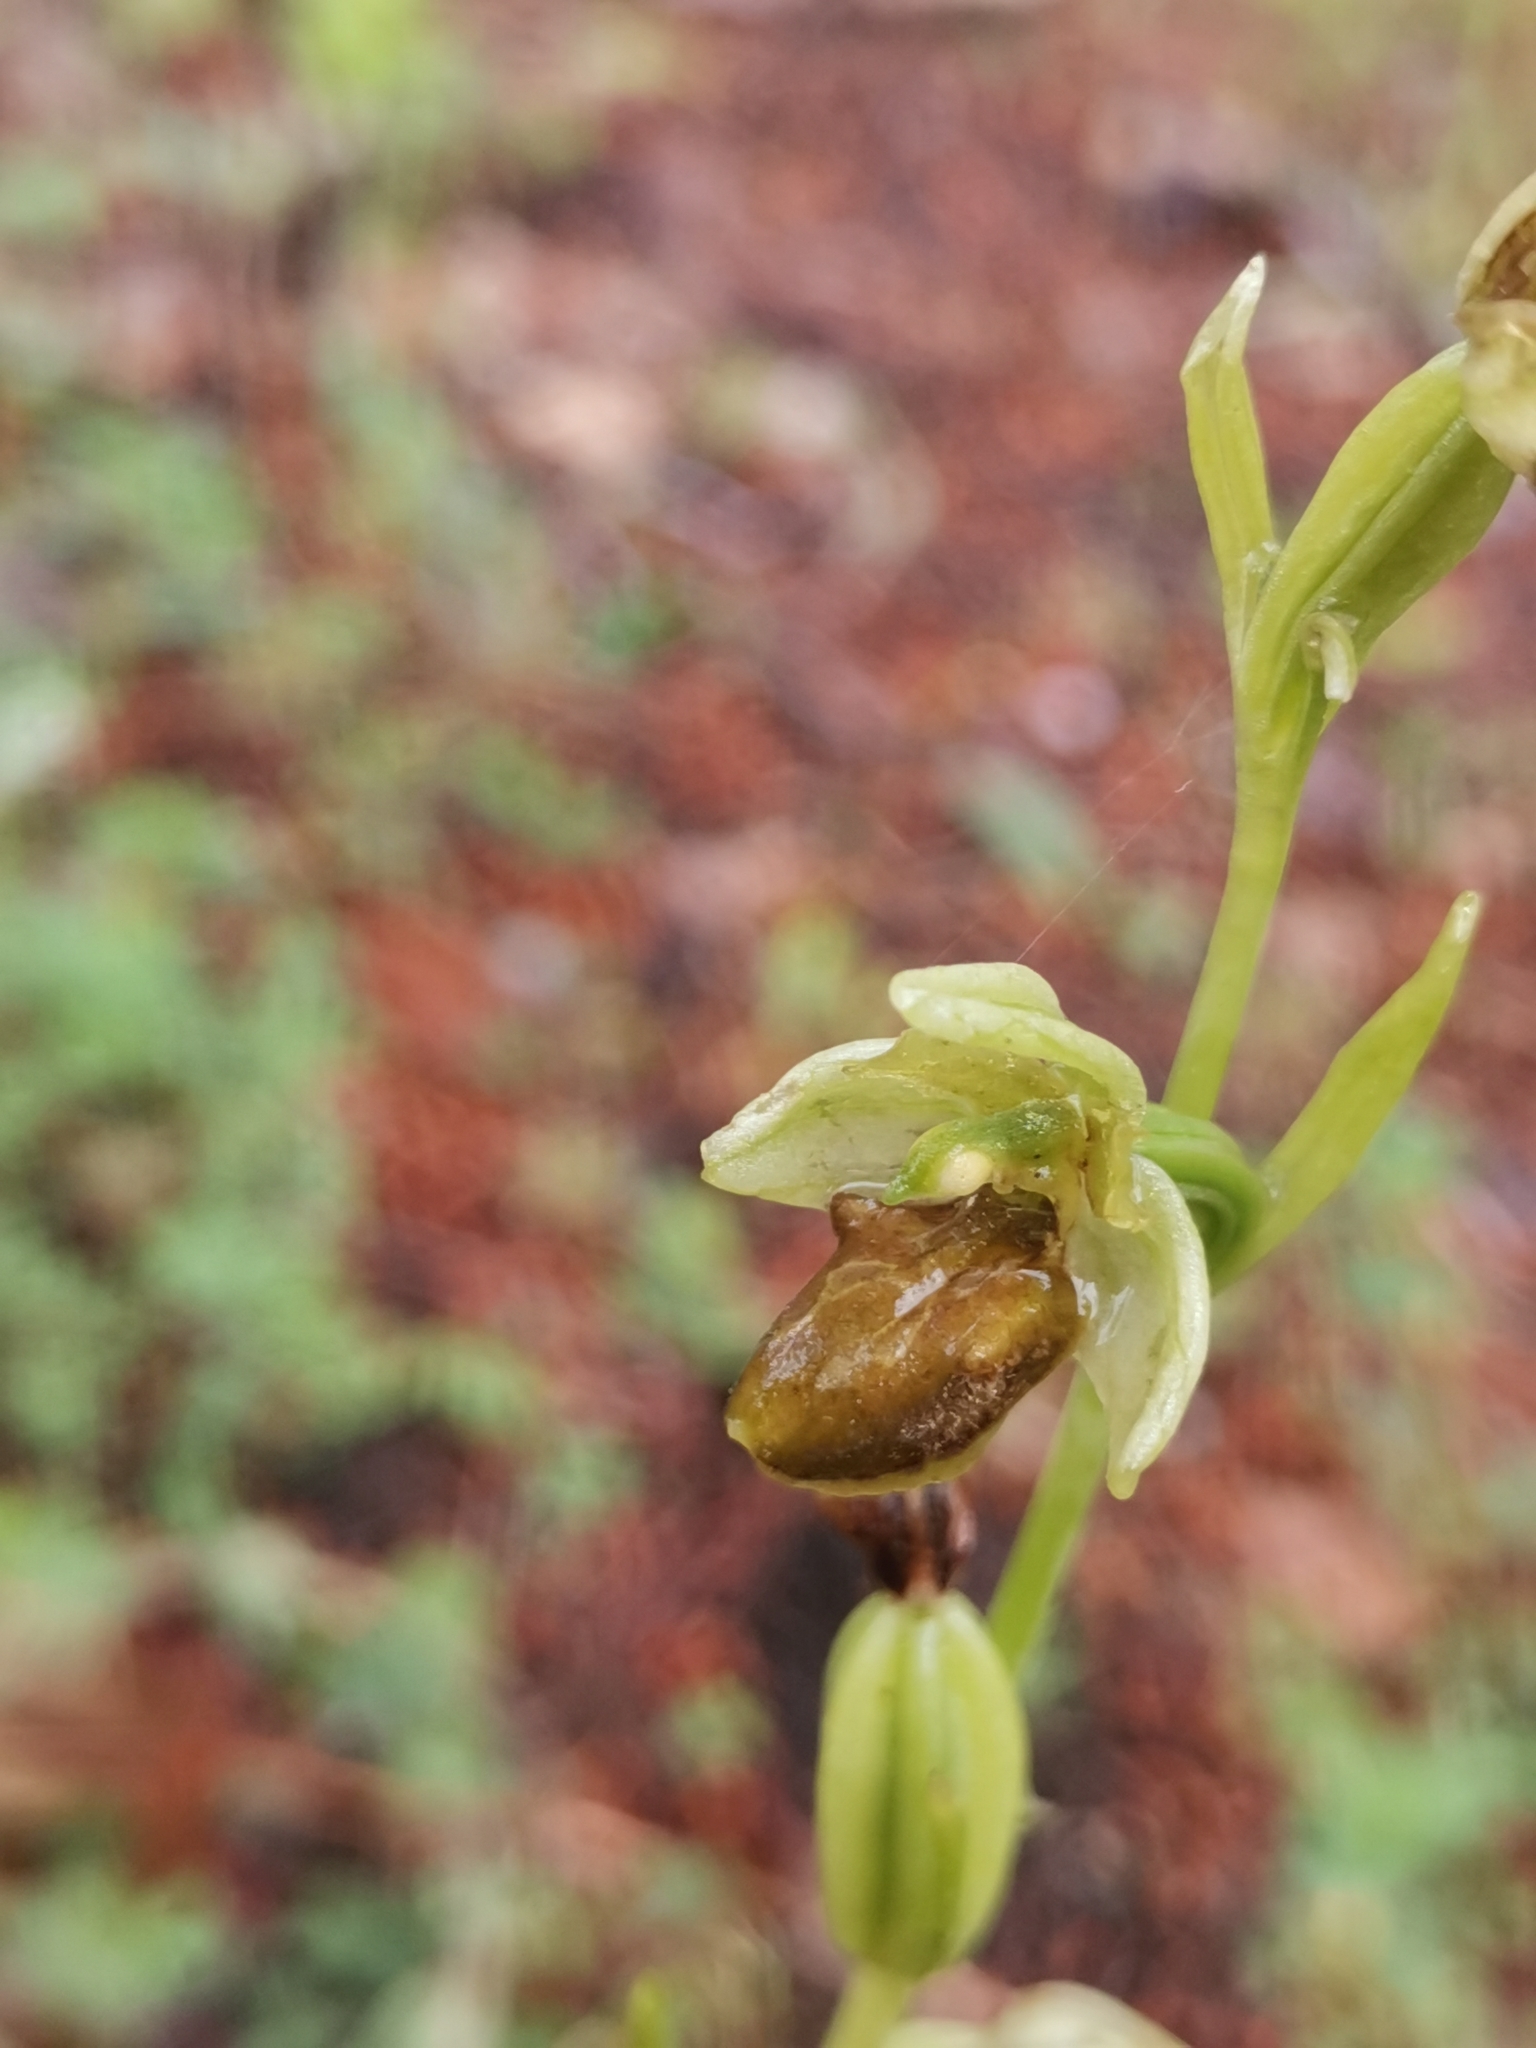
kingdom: Plantae
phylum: Tracheophyta
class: Liliopsida
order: Asparagales
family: Orchidaceae
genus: Ophrys
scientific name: Ophrys sphegodes
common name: Early spider-orchid
